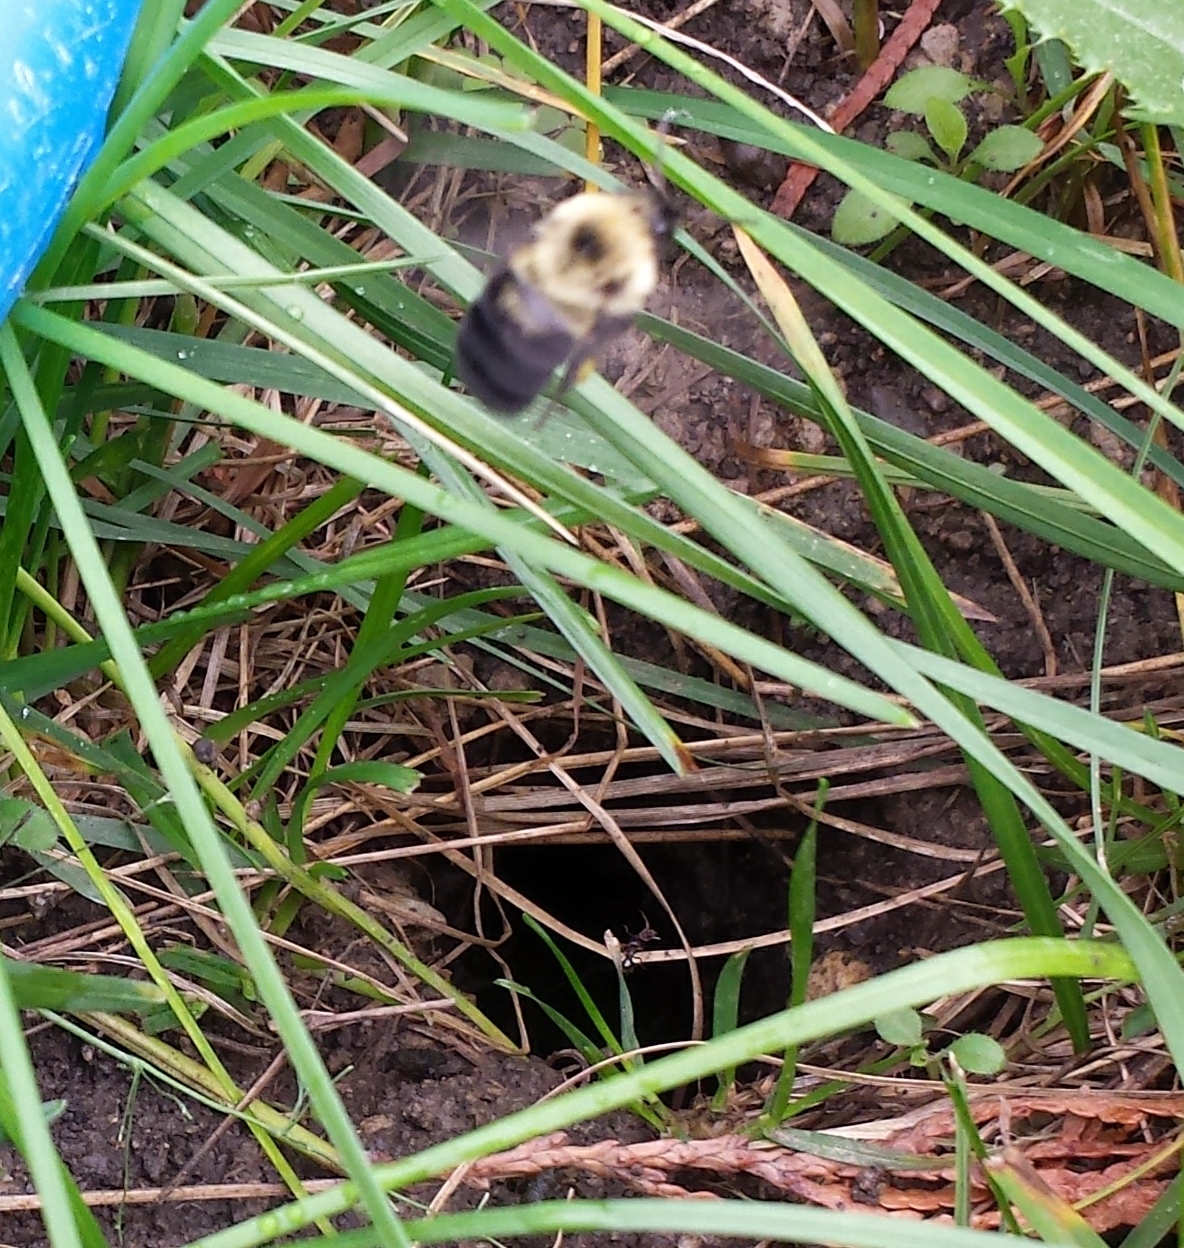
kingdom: Animalia
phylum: Arthropoda
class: Insecta
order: Hymenoptera
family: Apidae
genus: Bombus
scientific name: Bombus bimaculatus
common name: Two-spotted bumble bee
